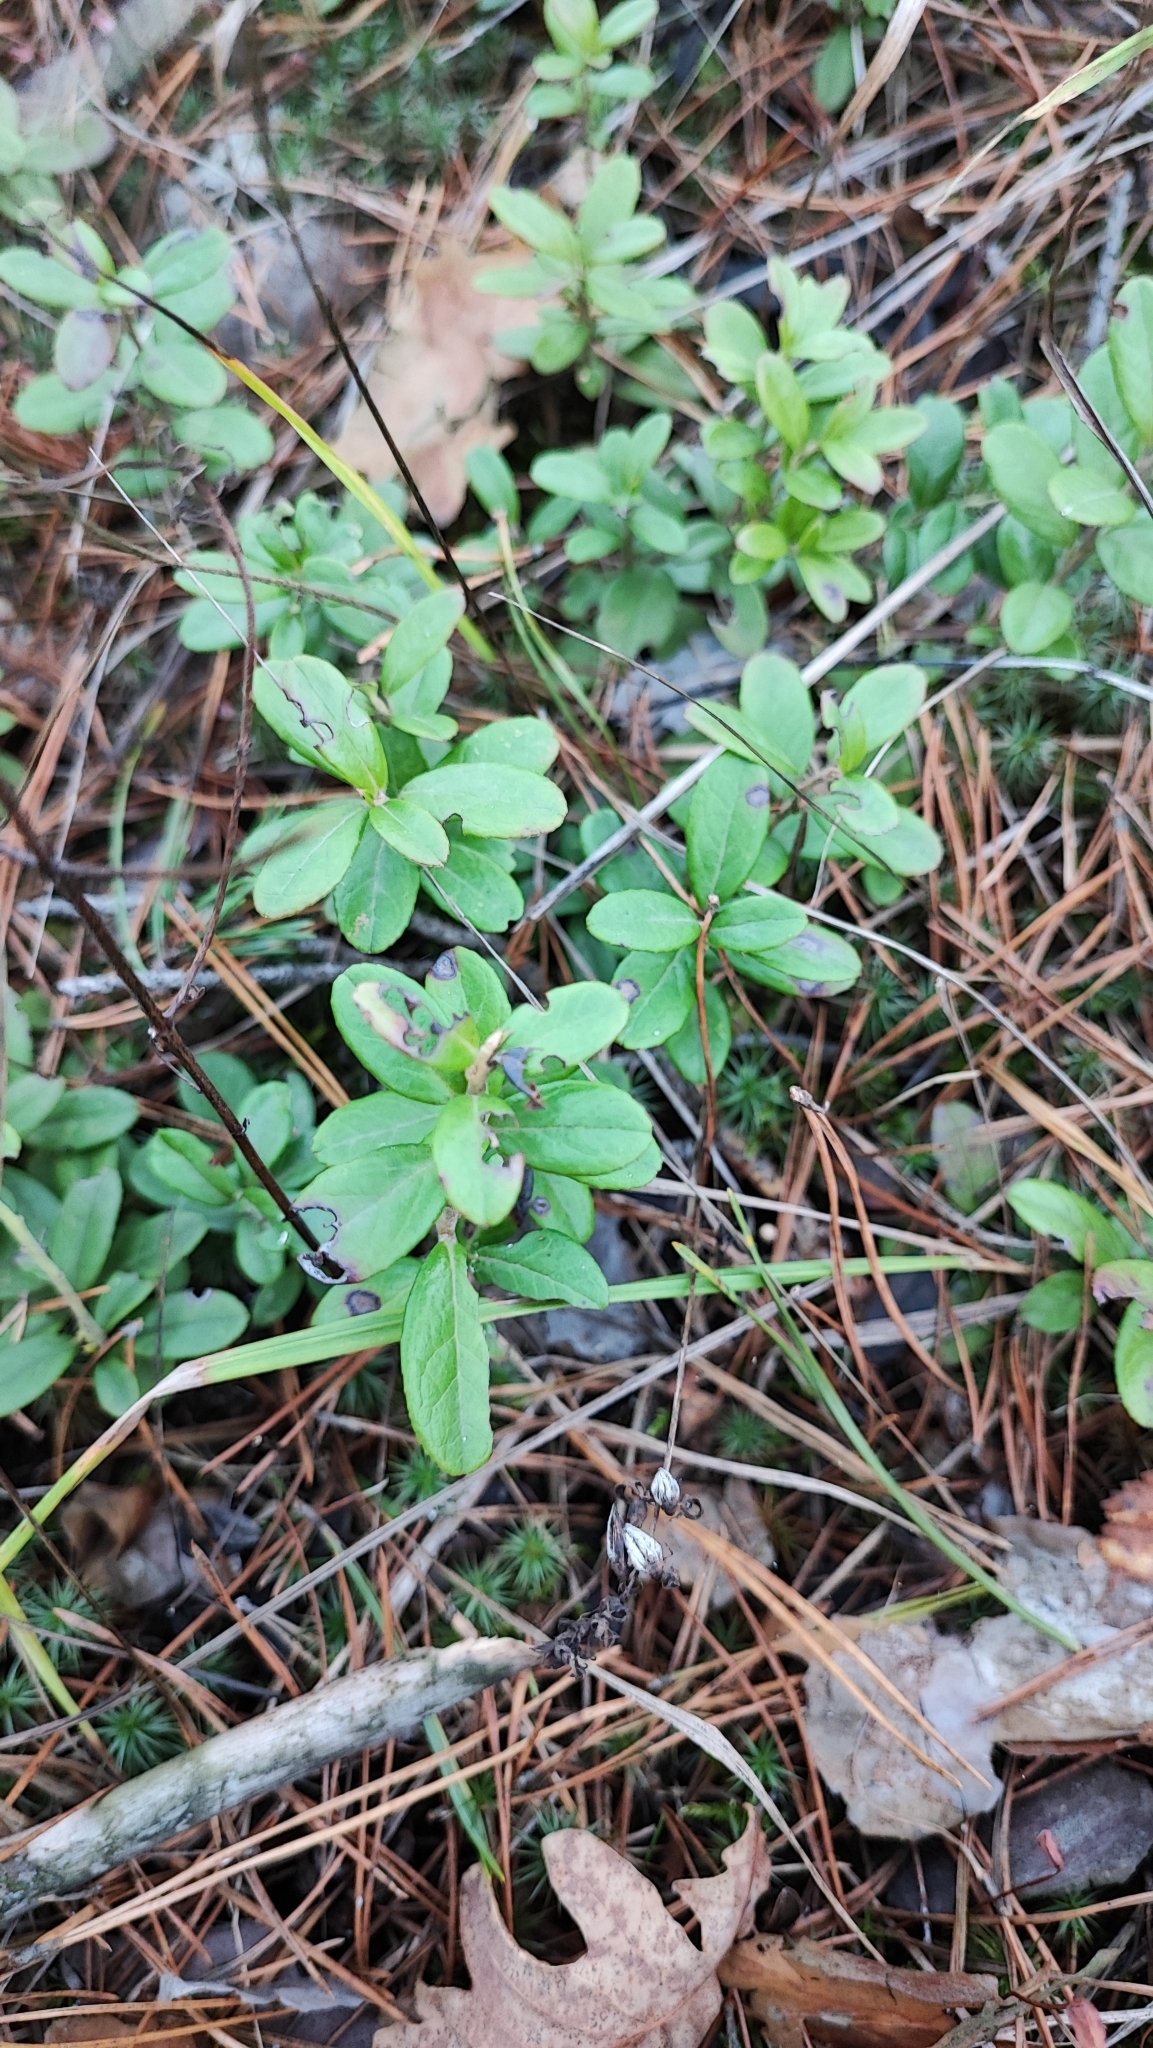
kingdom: Plantae
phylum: Tracheophyta
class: Magnoliopsida
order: Ericales
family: Ericaceae
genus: Vaccinium
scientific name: Vaccinium vitis-idaea
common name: Cowberry
